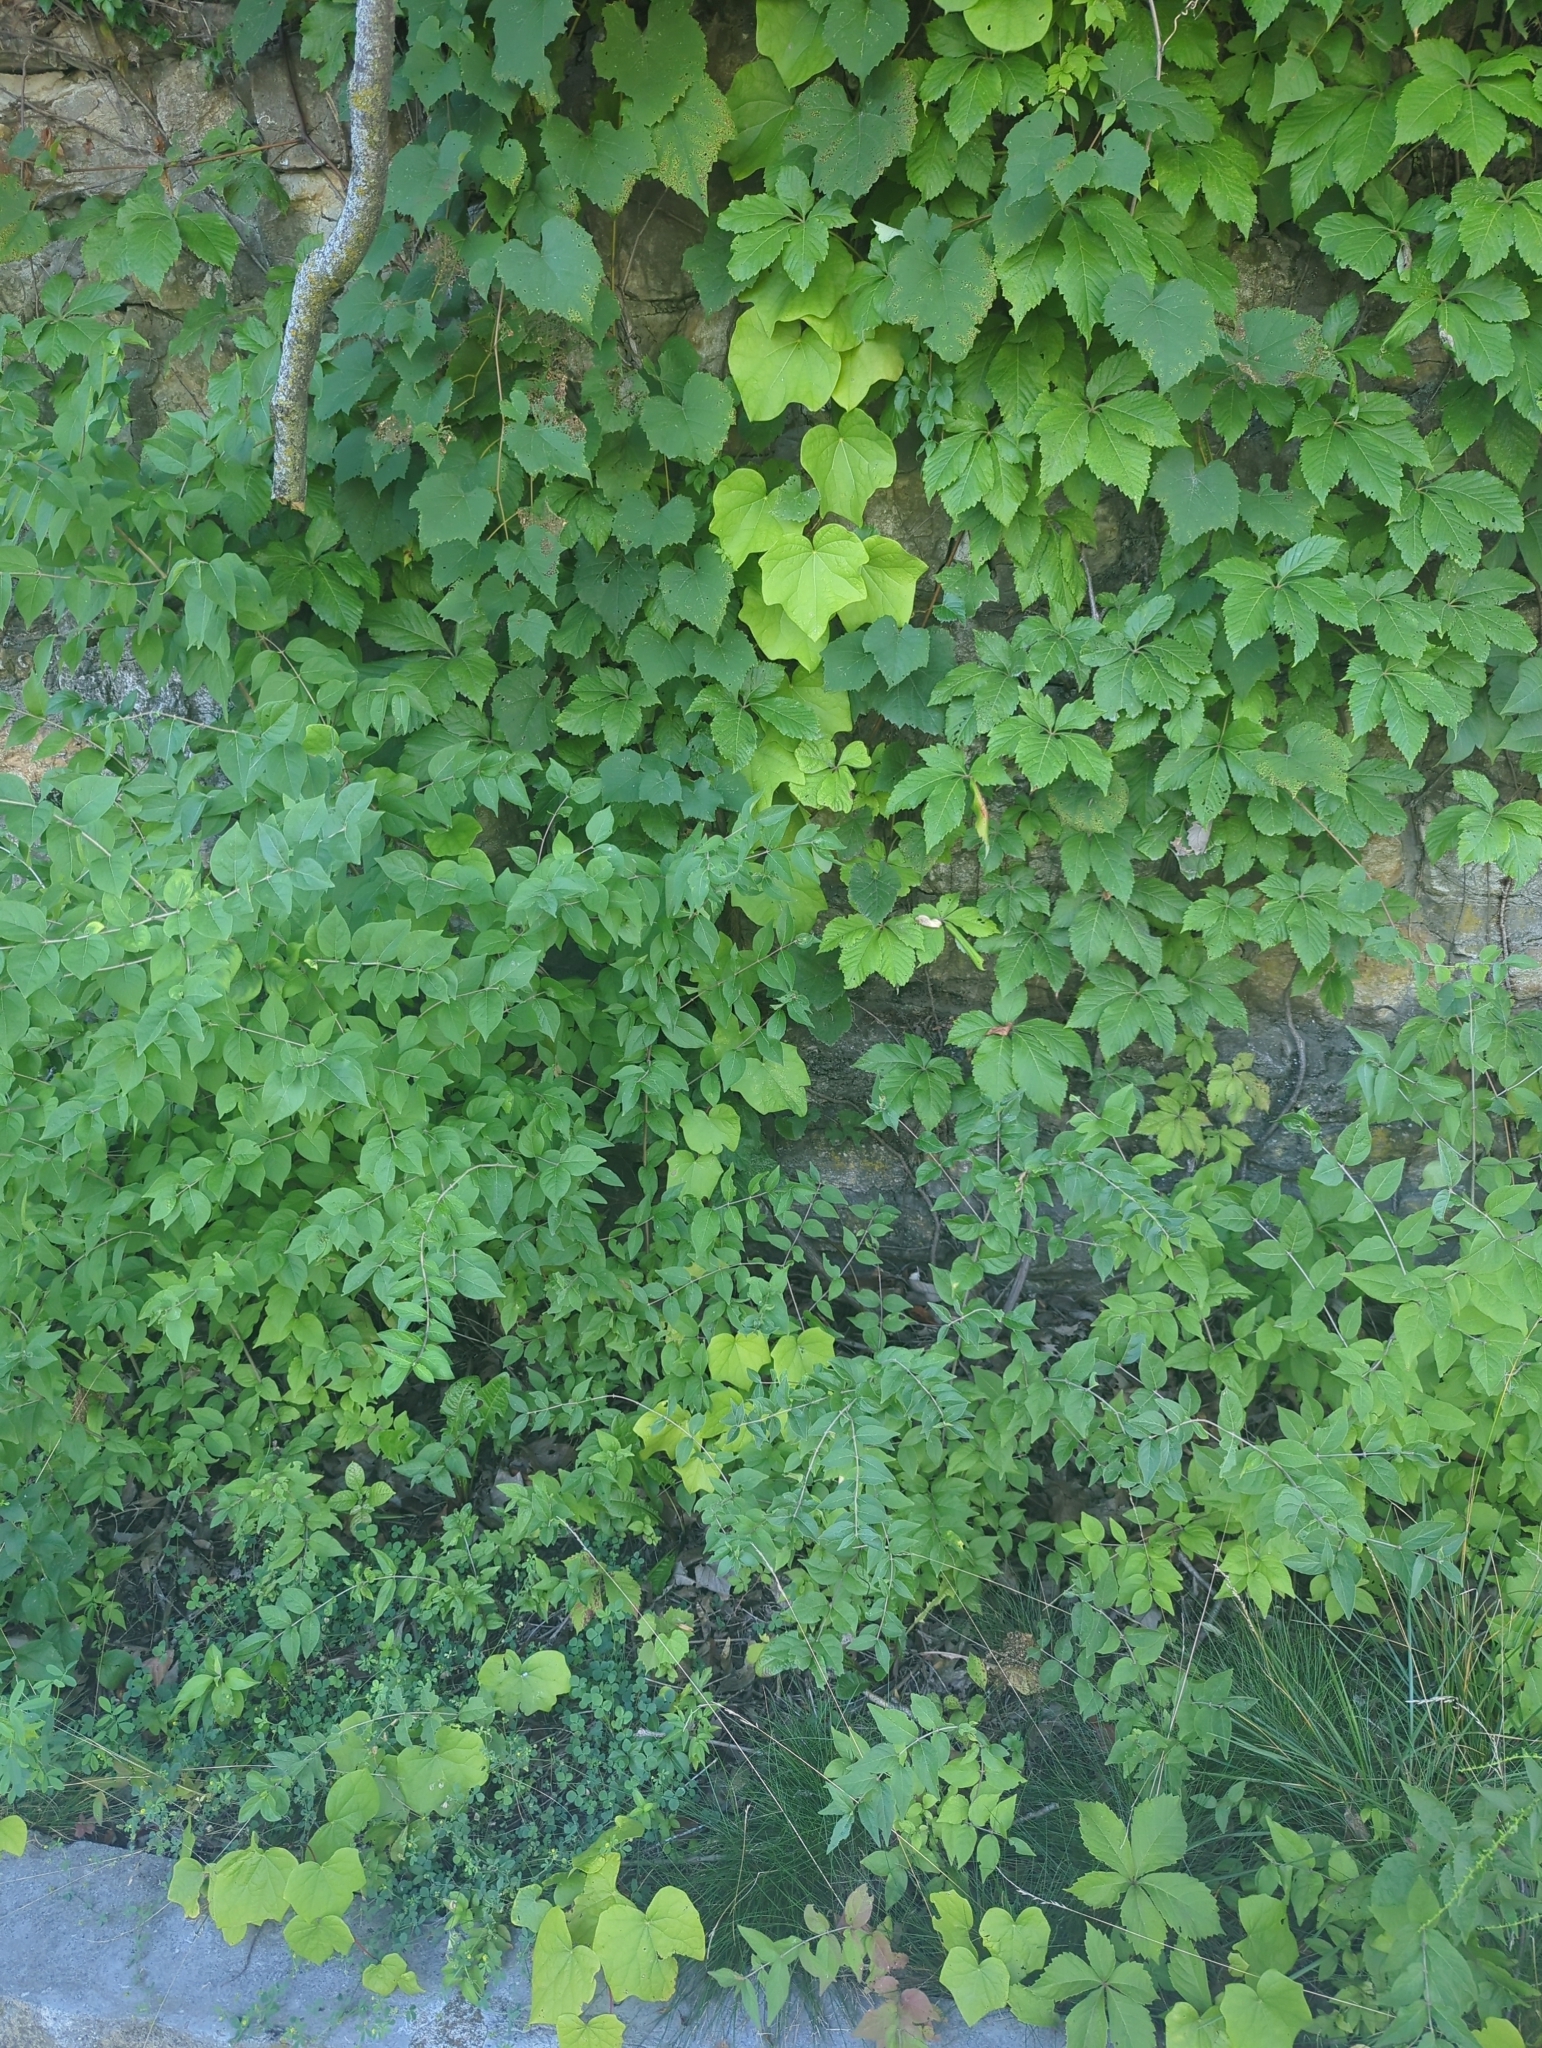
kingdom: Plantae
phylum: Tracheophyta
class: Magnoliopsida
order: Ranunculales
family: Menispermaceae
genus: Menispermum
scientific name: Menispermum canadense
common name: Moonseed
